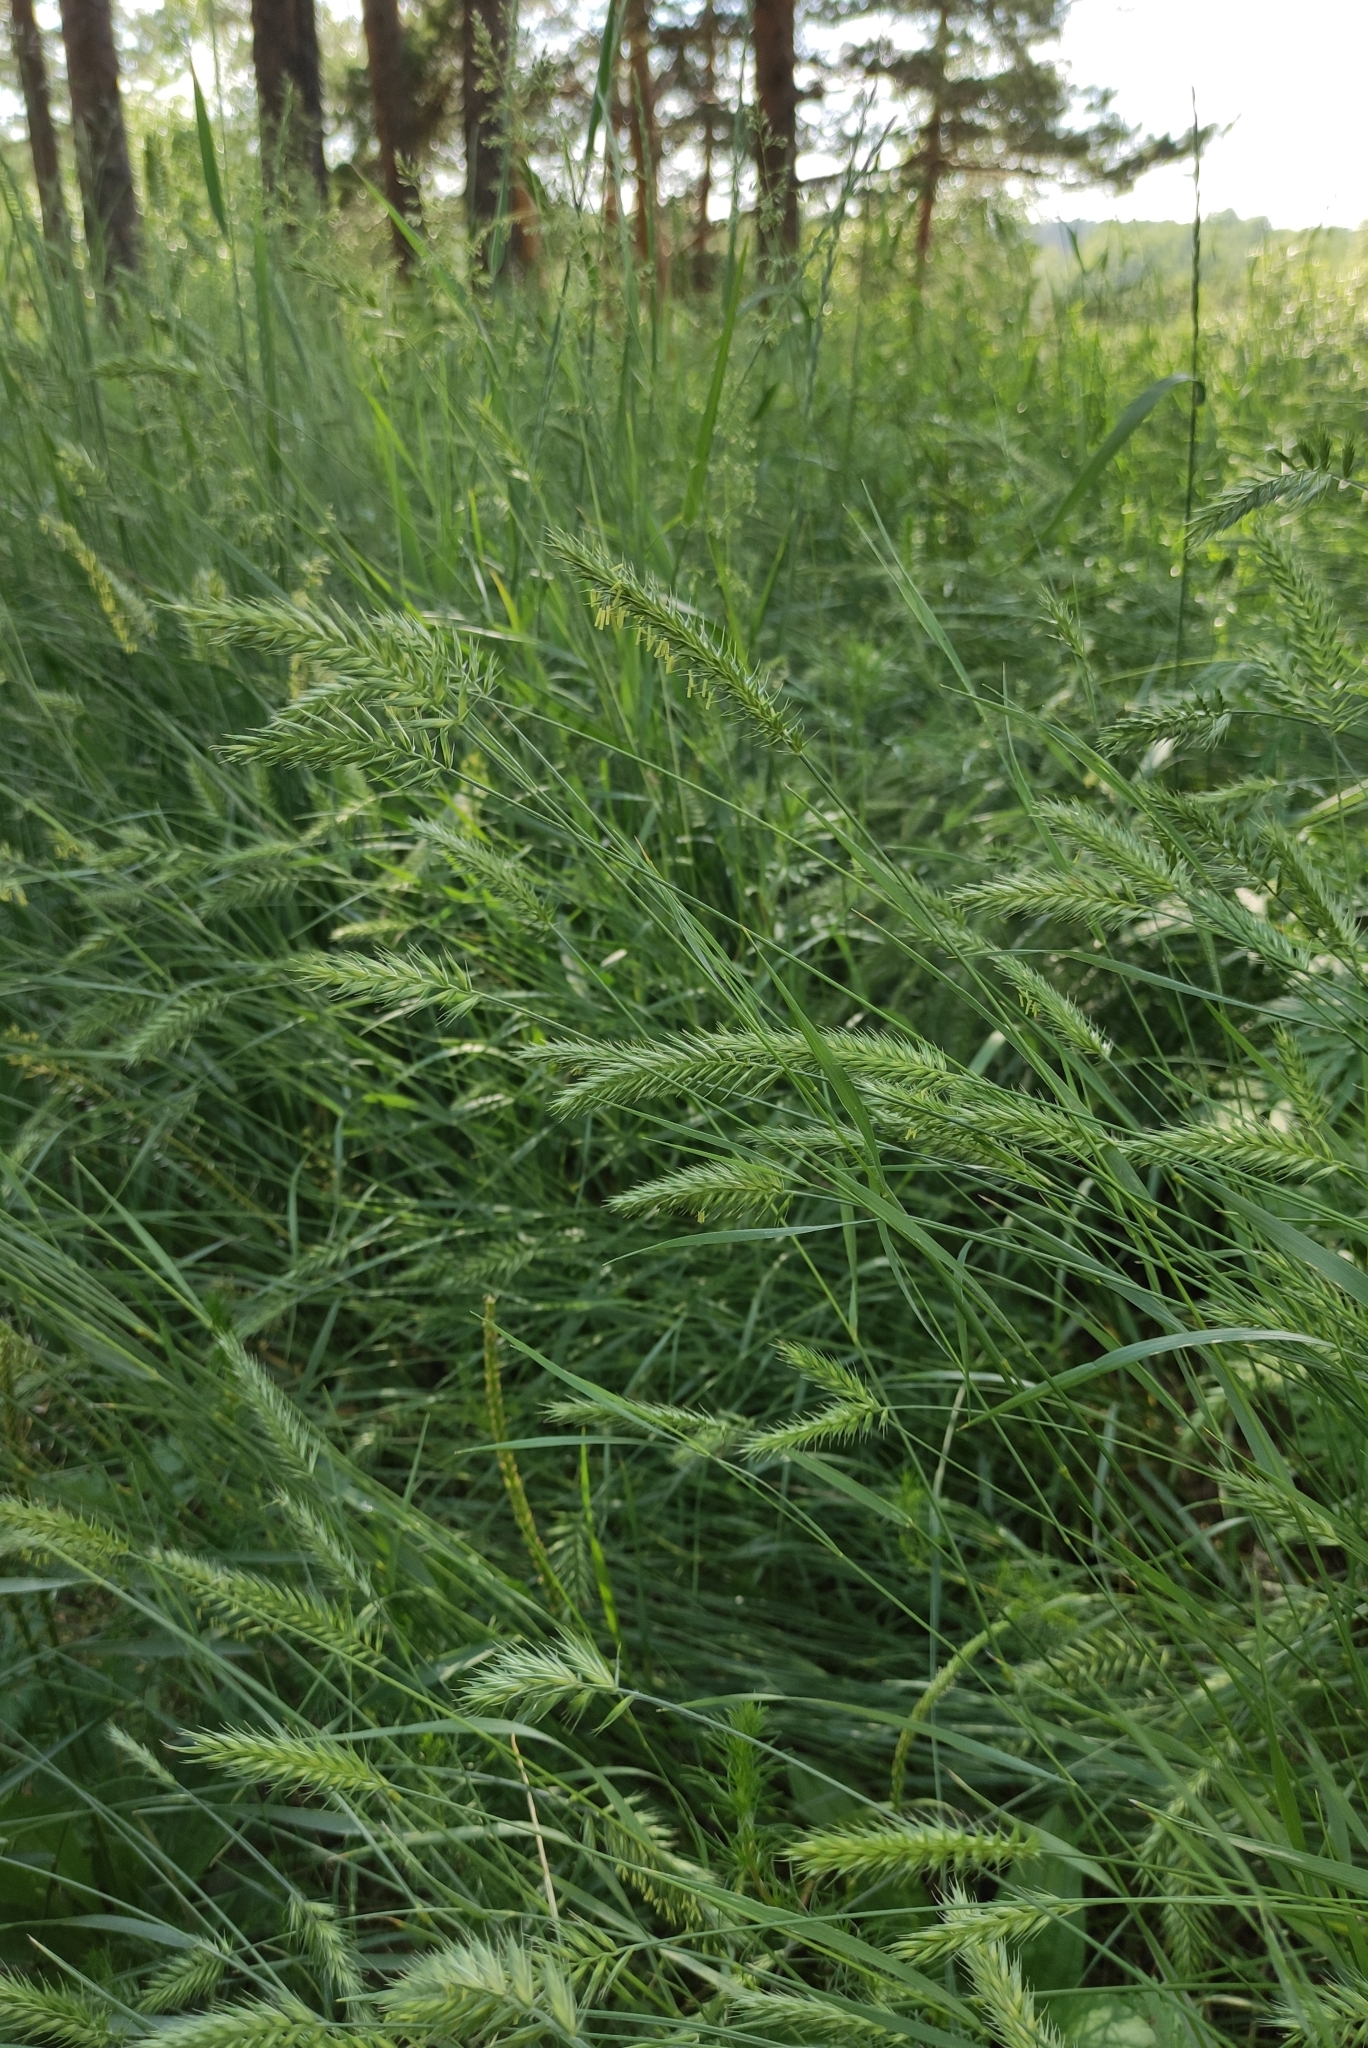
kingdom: Plantae
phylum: Tracheophyta
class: Liliopsida
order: Poales
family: Poaceae
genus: Agropyron
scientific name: Agropyron cristatum
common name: Crested wheatgrass
